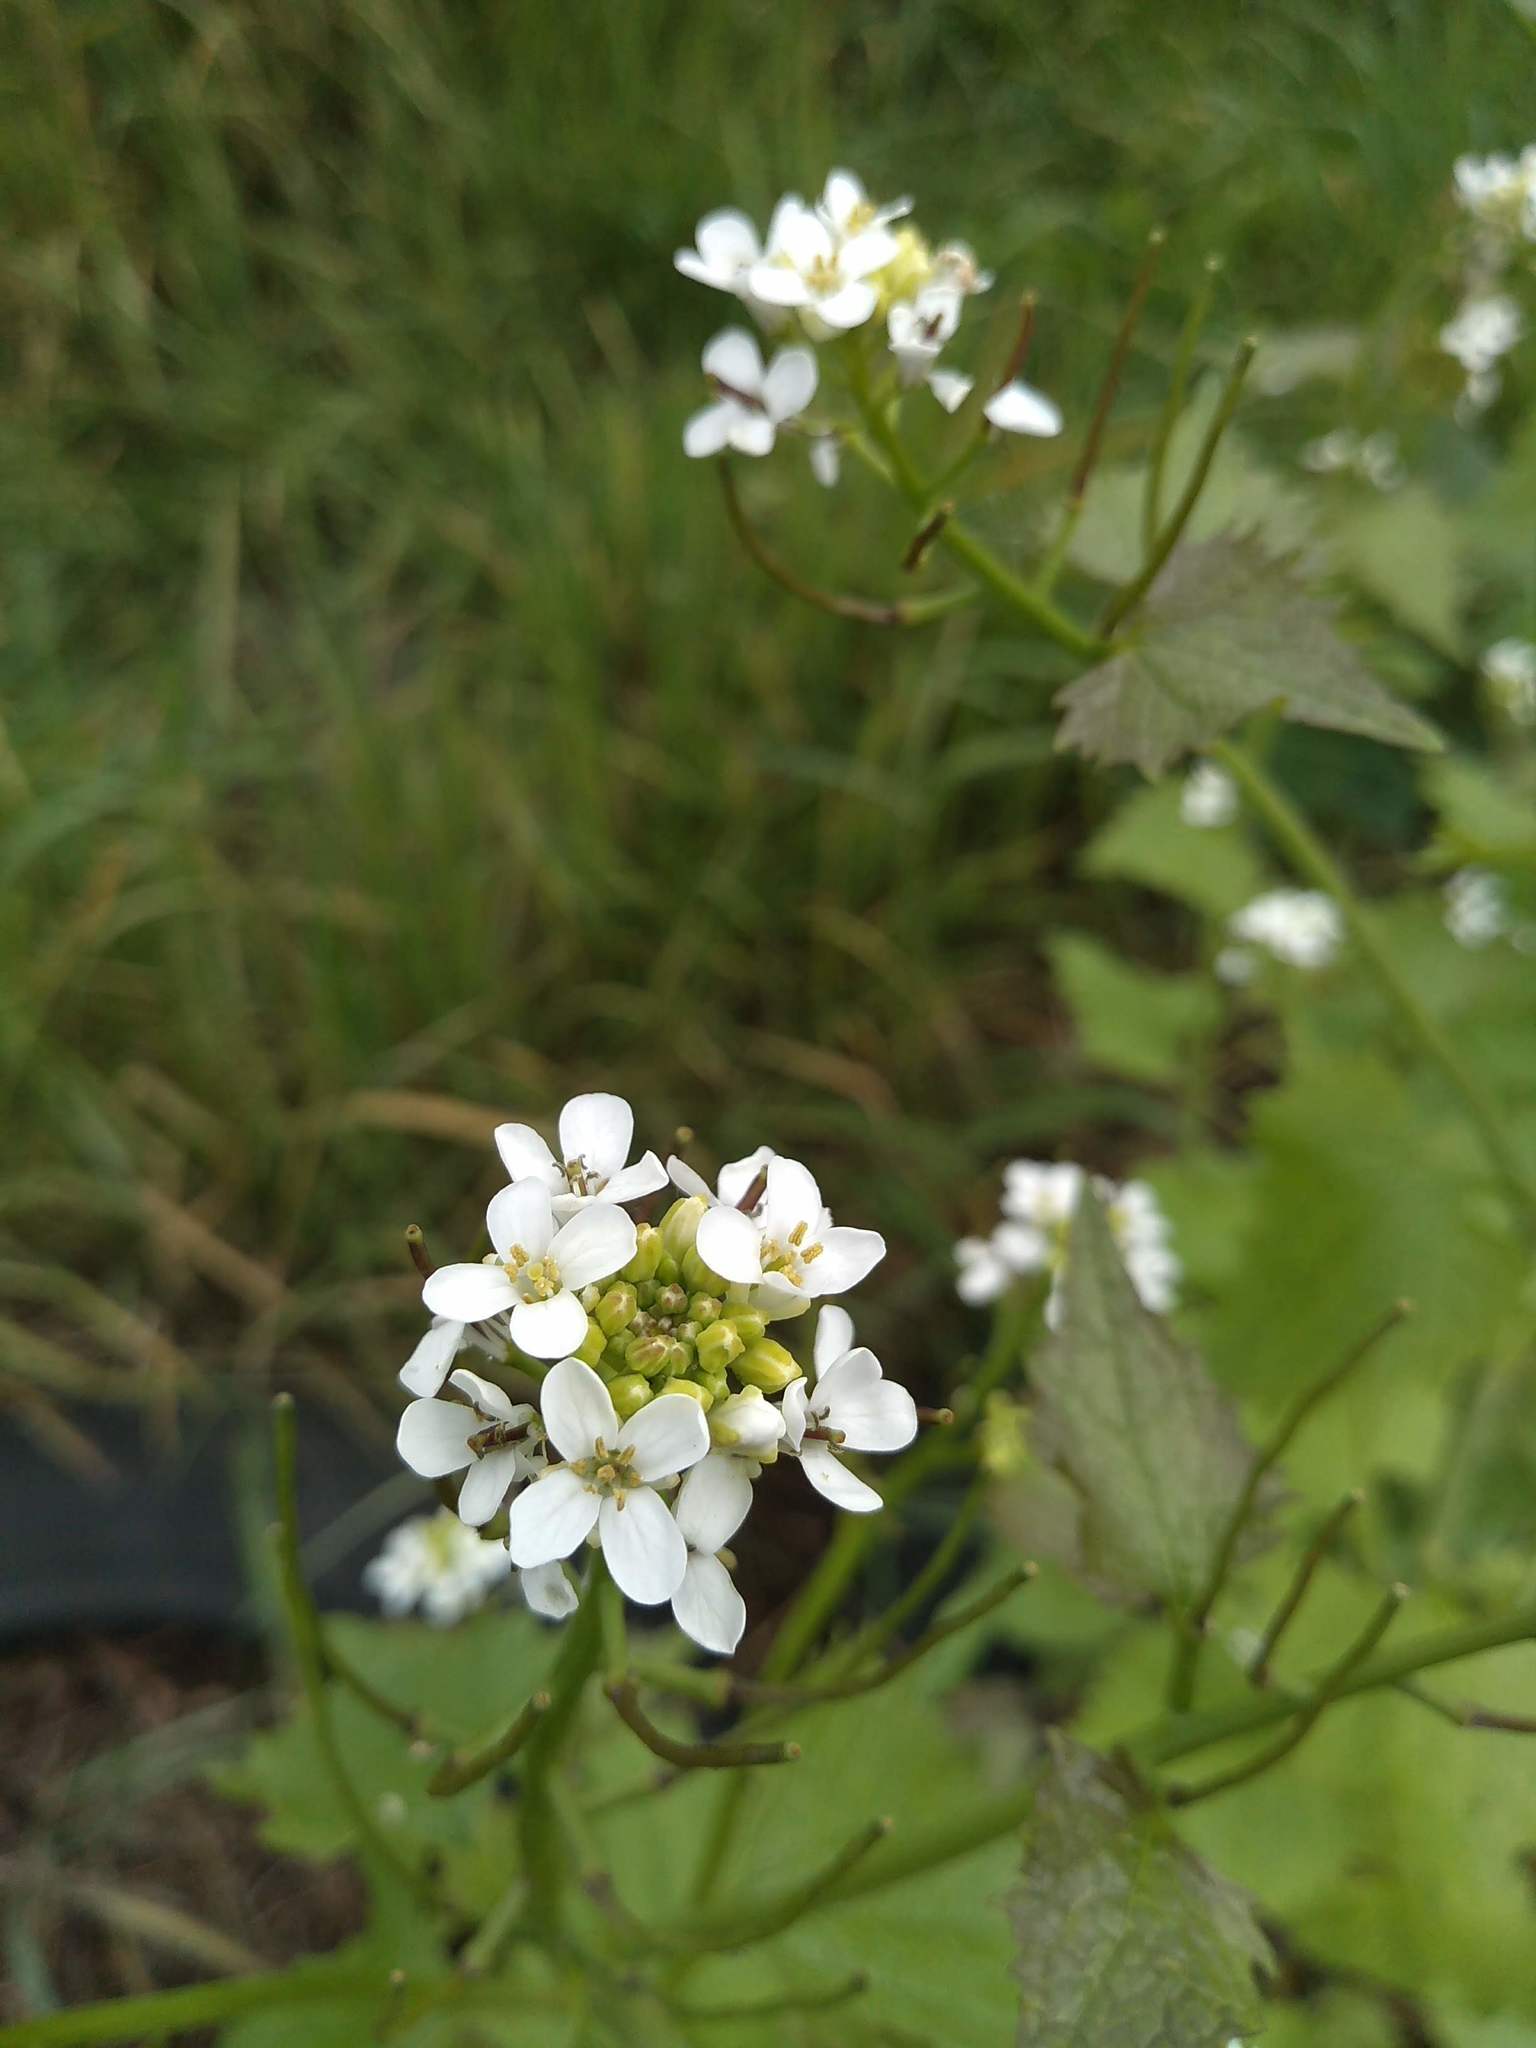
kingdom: Plantae
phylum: Tracheophyta
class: Magnoliopsida
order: Brassicales
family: Brassicaceae
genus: Alliaria
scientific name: Alliaria petiolata
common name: Garlic mustard
